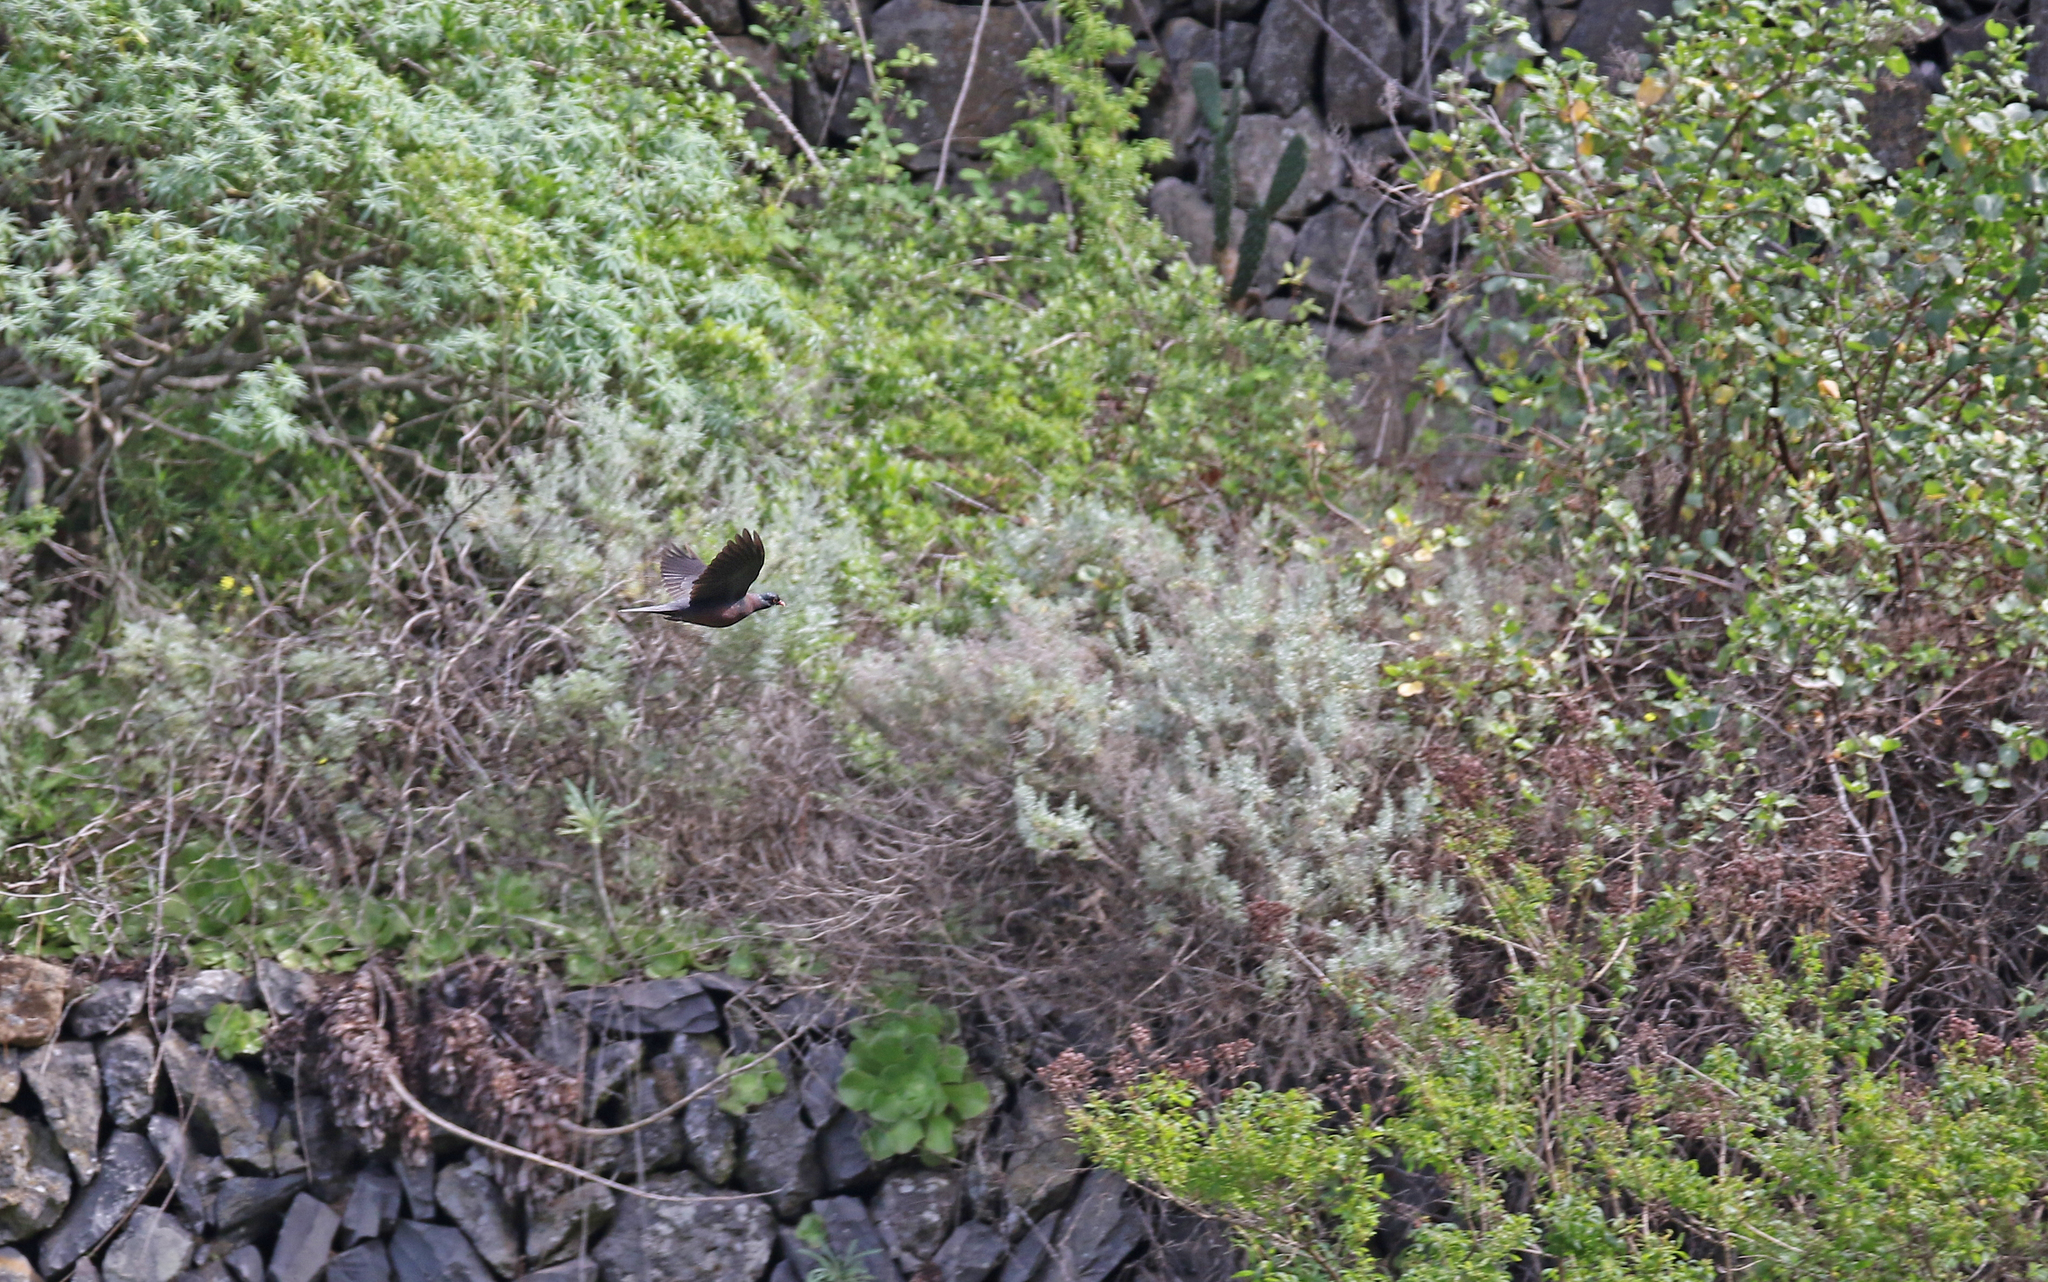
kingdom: Animalia
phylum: Chordata
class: Aves
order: Columbiformes
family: Columbidae
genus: Columba
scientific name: Columba junoniae
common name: Laurel pigeon
